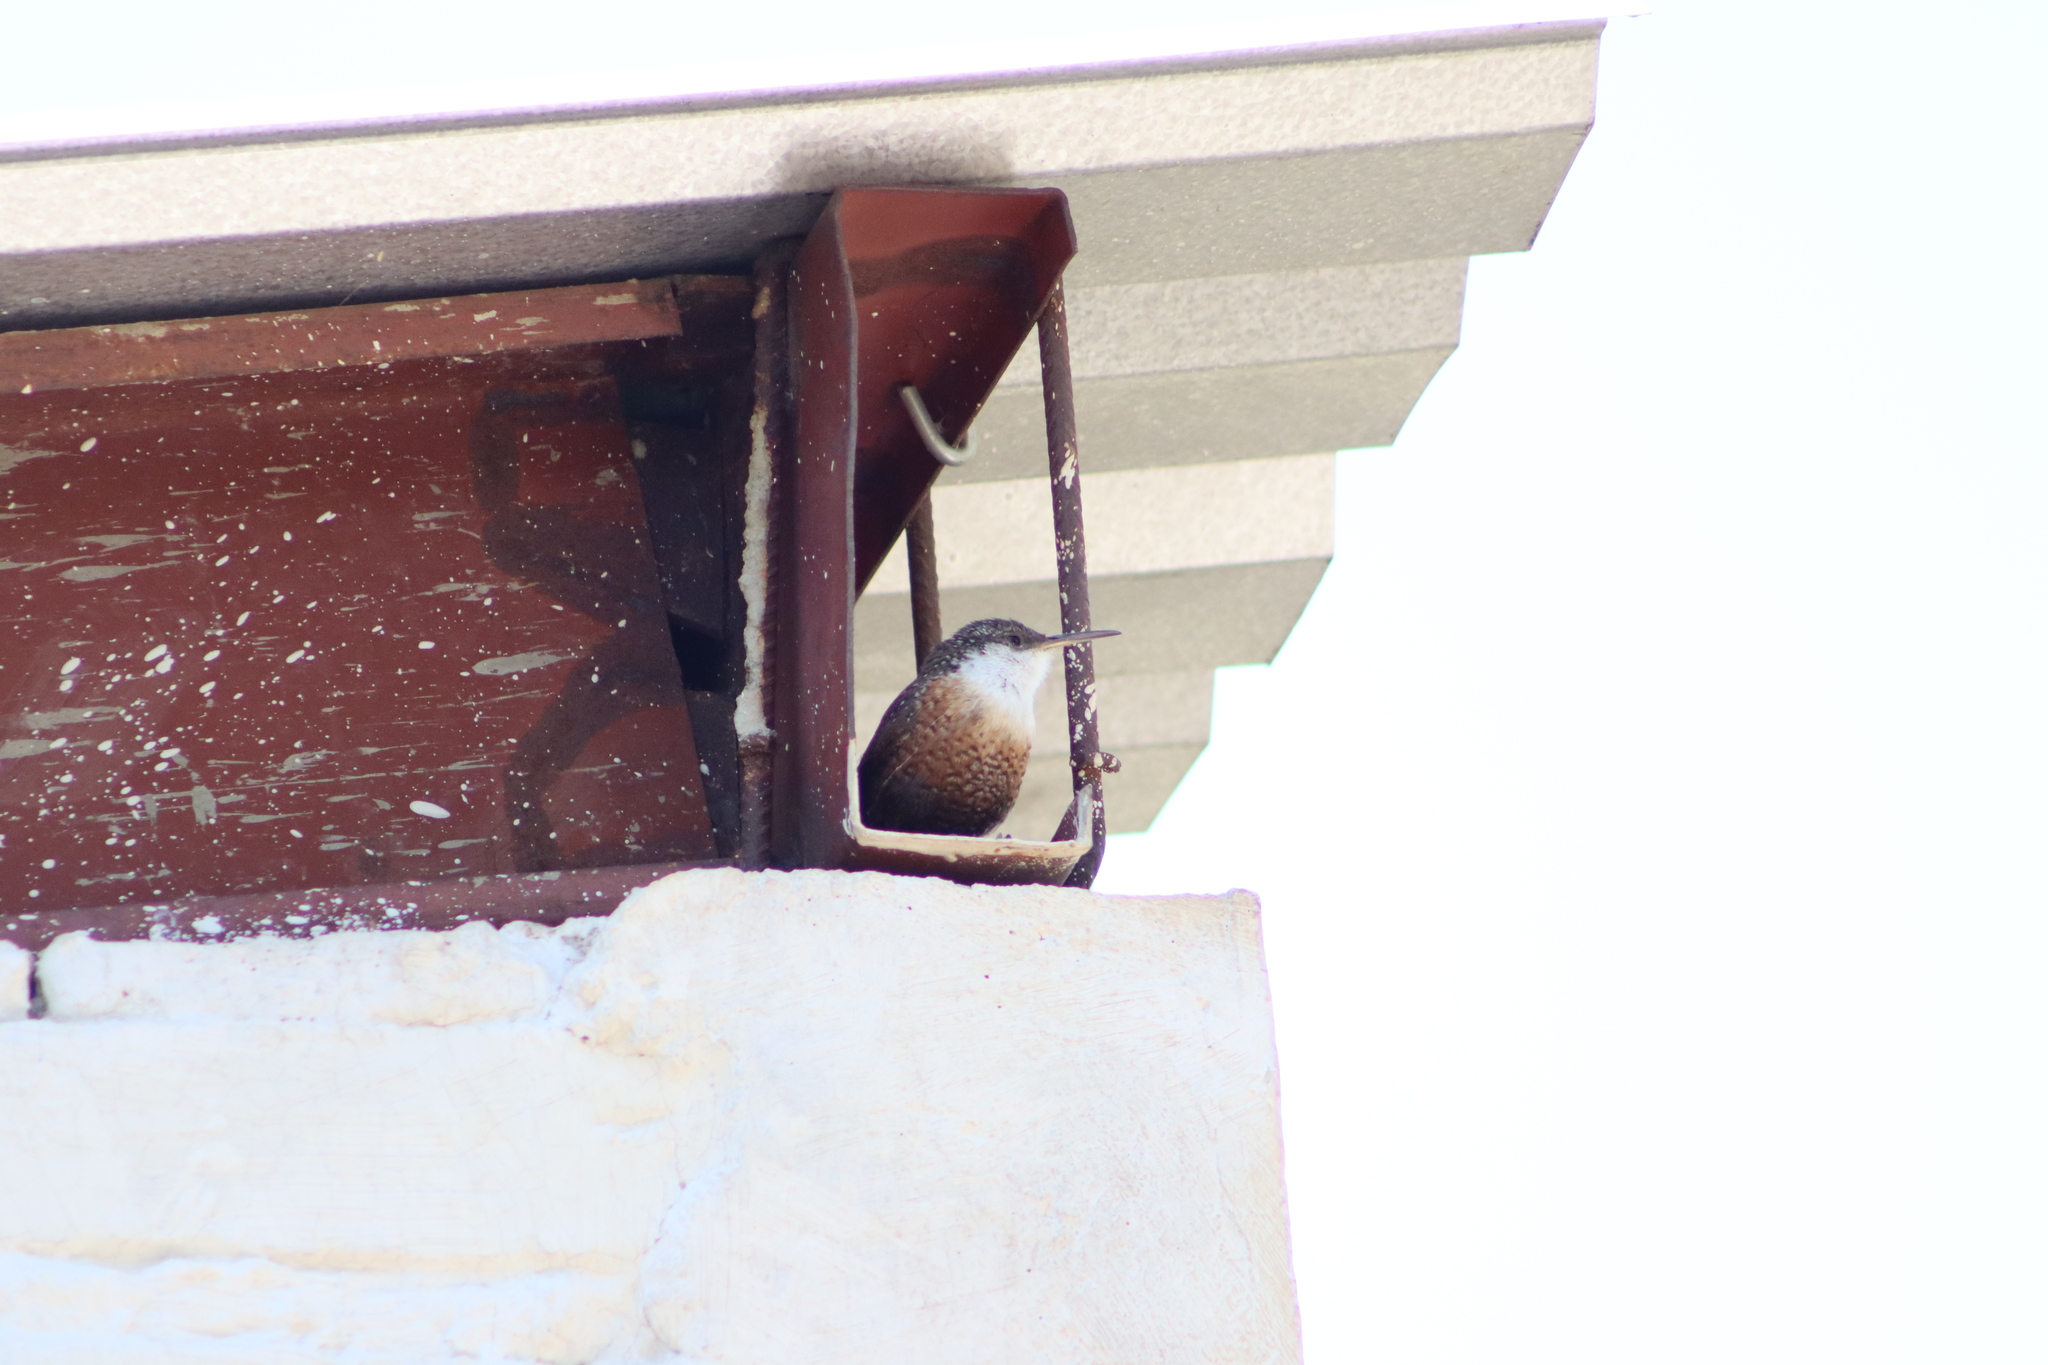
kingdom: Animalia
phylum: Chordata
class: Aves
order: Passeriformes
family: Troglodytidae
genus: Catherpes
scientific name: Catherpes mexicanus
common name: Canyon wren
